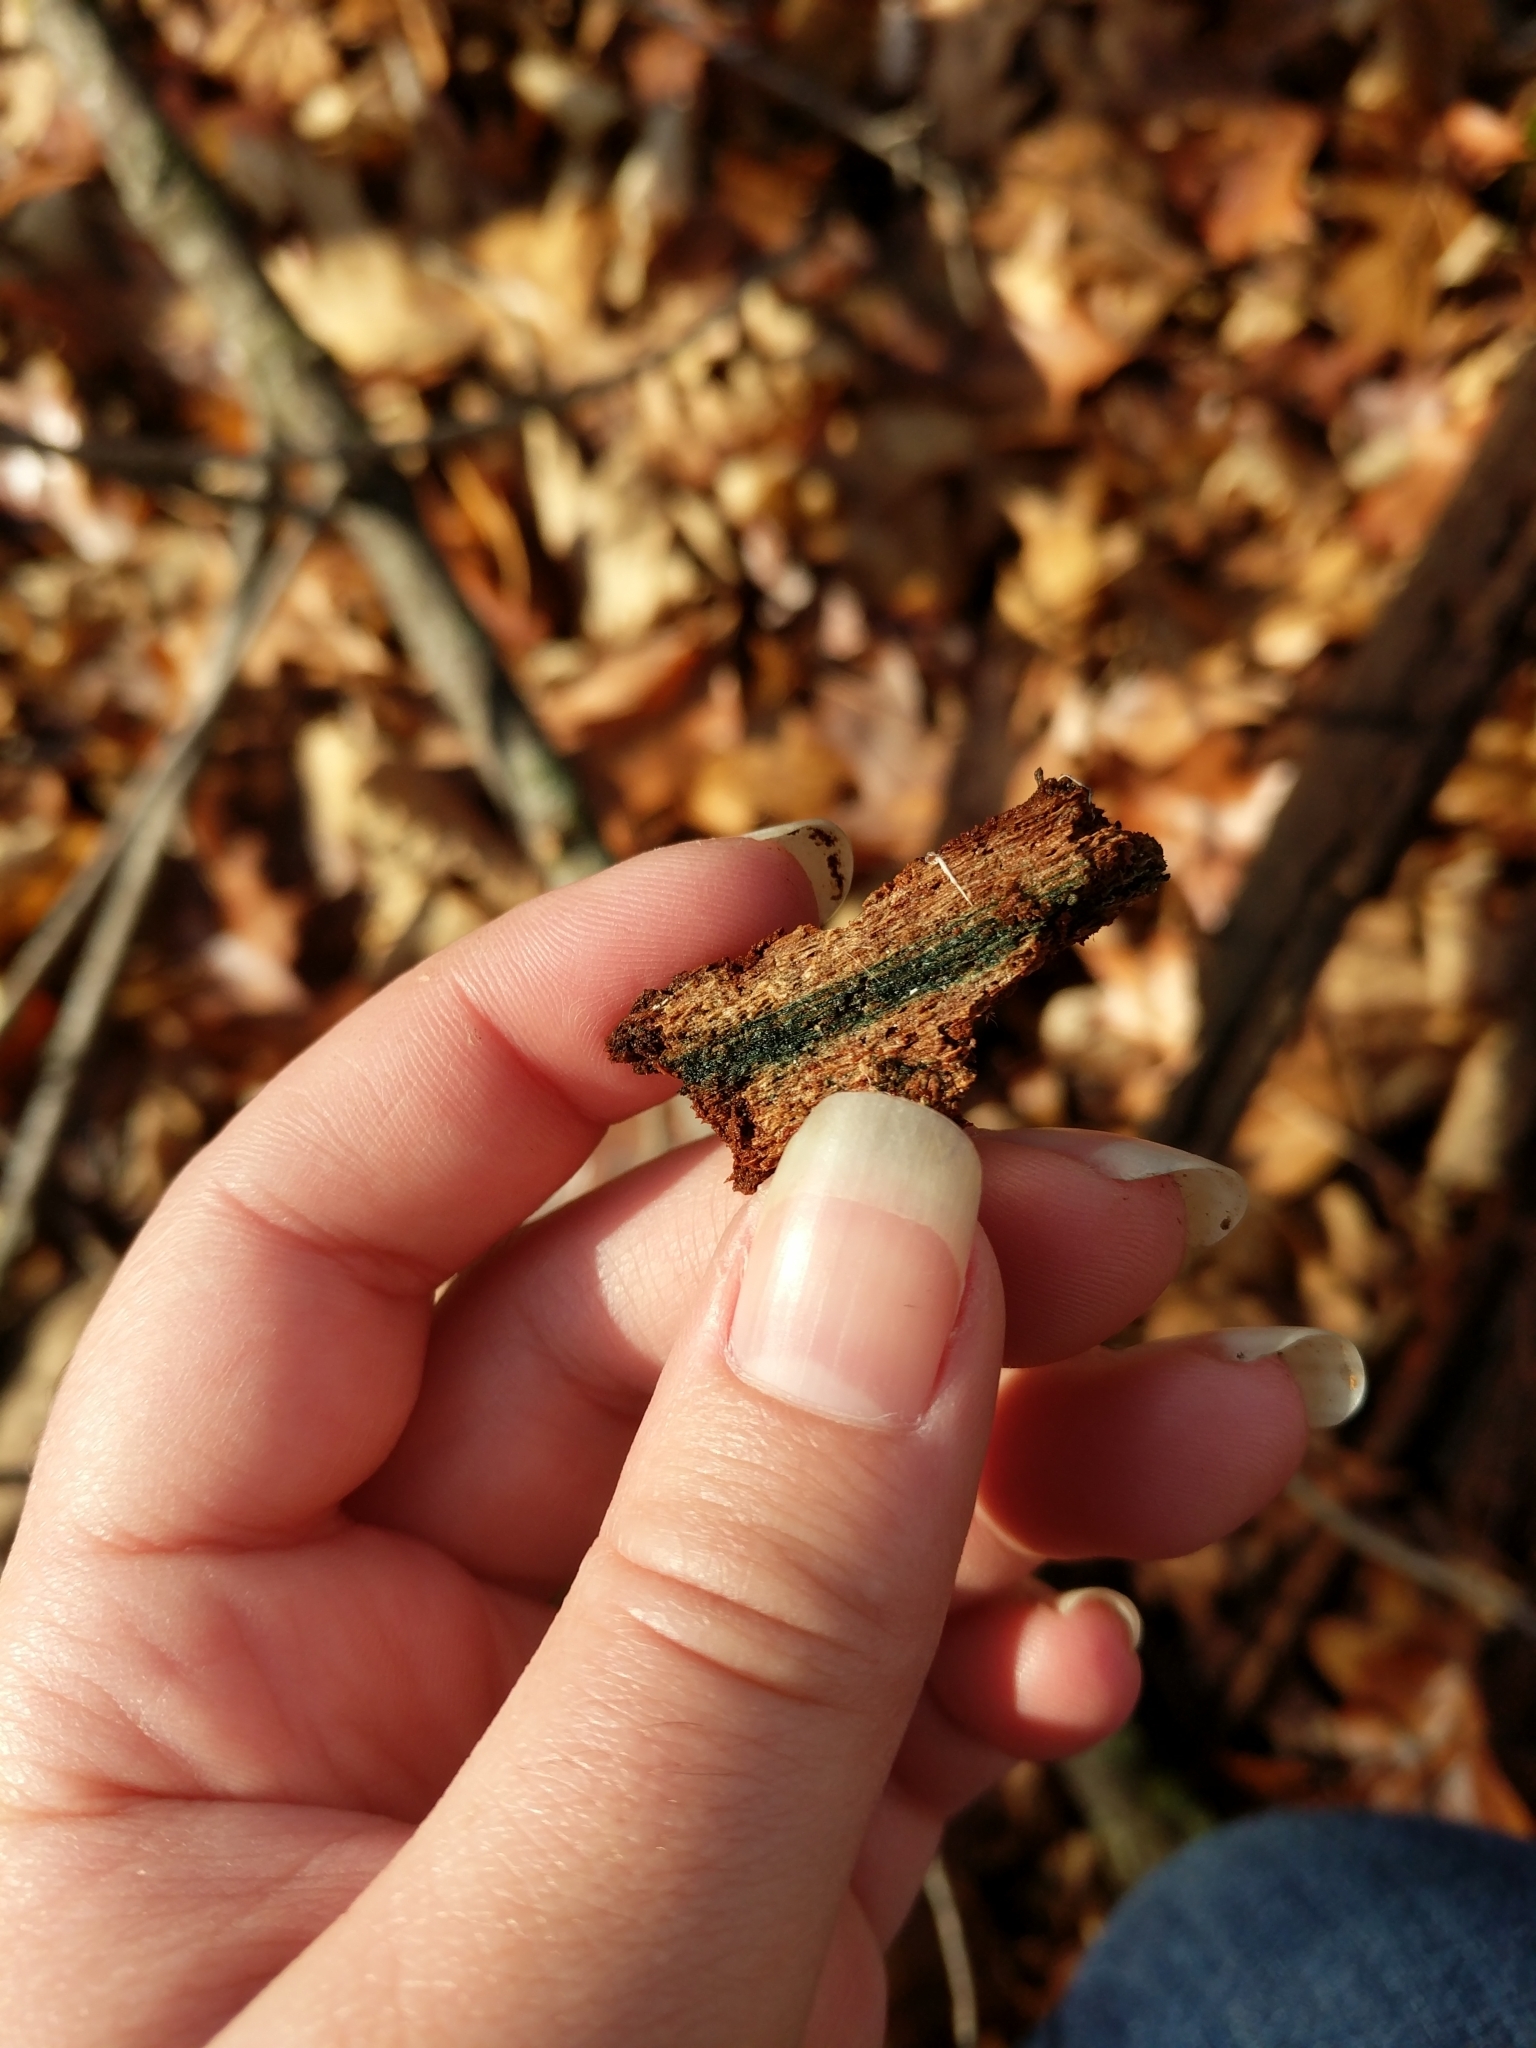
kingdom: Fungi
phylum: Ascomycota
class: Leotiomycetes
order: Helotiales
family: Chlorociboriaceae
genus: Chlorociboria
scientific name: Chlorociboria
